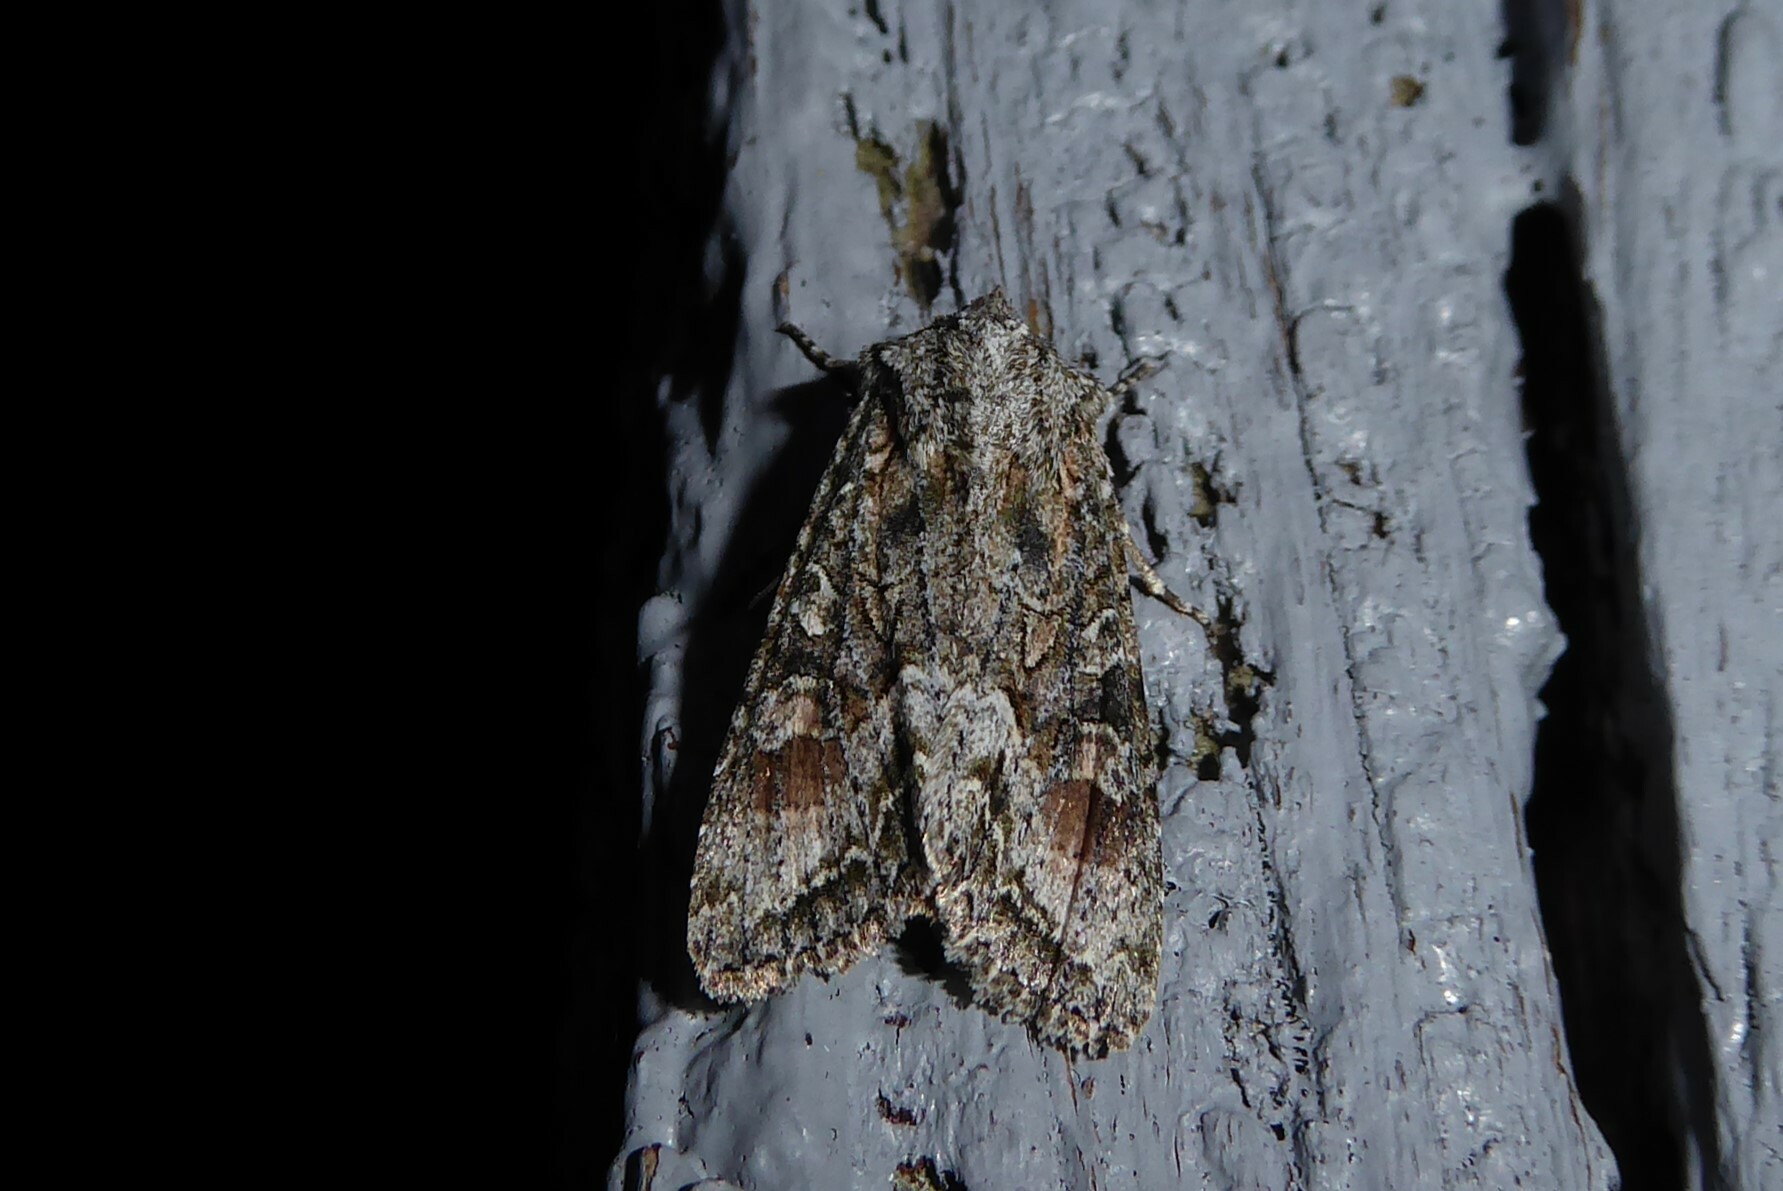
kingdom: Animalia
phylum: Arthropoda
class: Insecta
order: Lepidoptera
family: Noctuidae
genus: Ichneutica
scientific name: Ichneutica mutans
